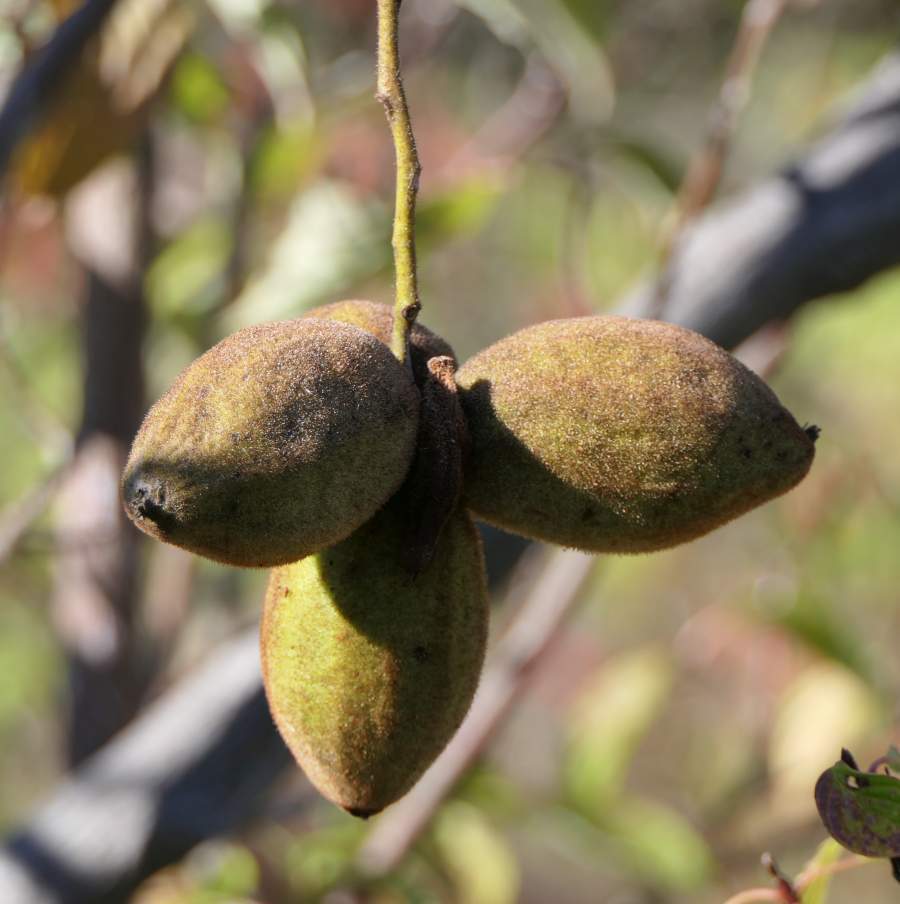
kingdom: Plantae
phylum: Tracheophyta
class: Magnoliopsida
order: Fagales
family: Juglandaceae
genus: Juglans
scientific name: Juglans cinerea
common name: Butternut
